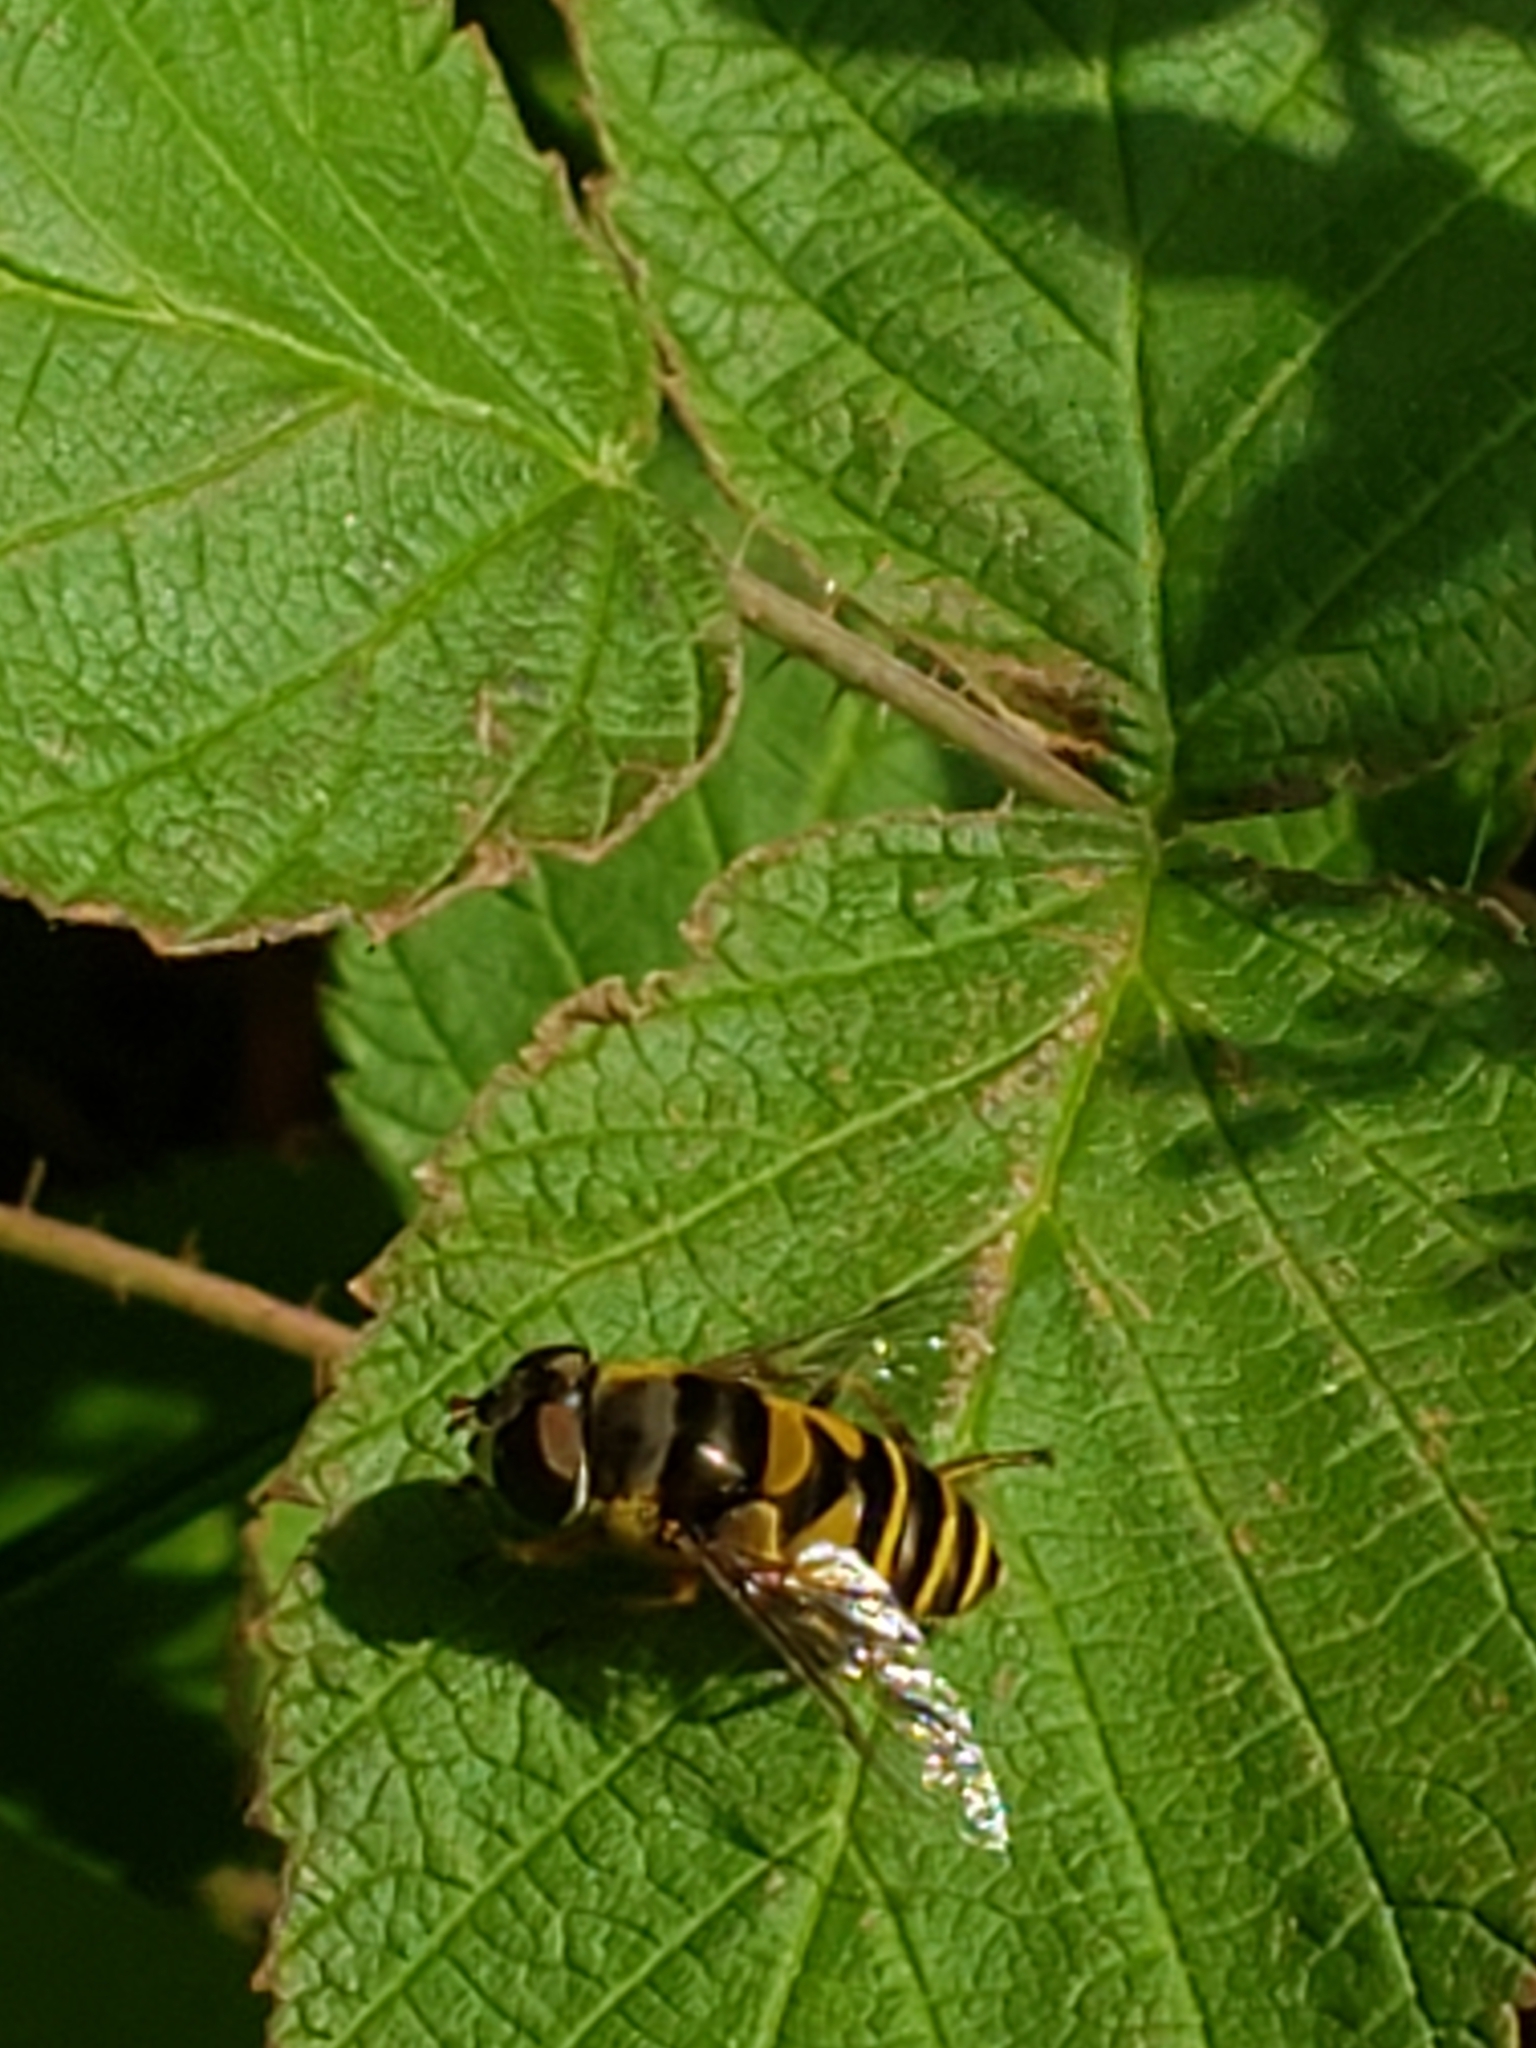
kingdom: Animalia
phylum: Arthropoda
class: Insecta
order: Diptera
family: Syrphidae
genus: Eristalis
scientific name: Eristalis transversa
